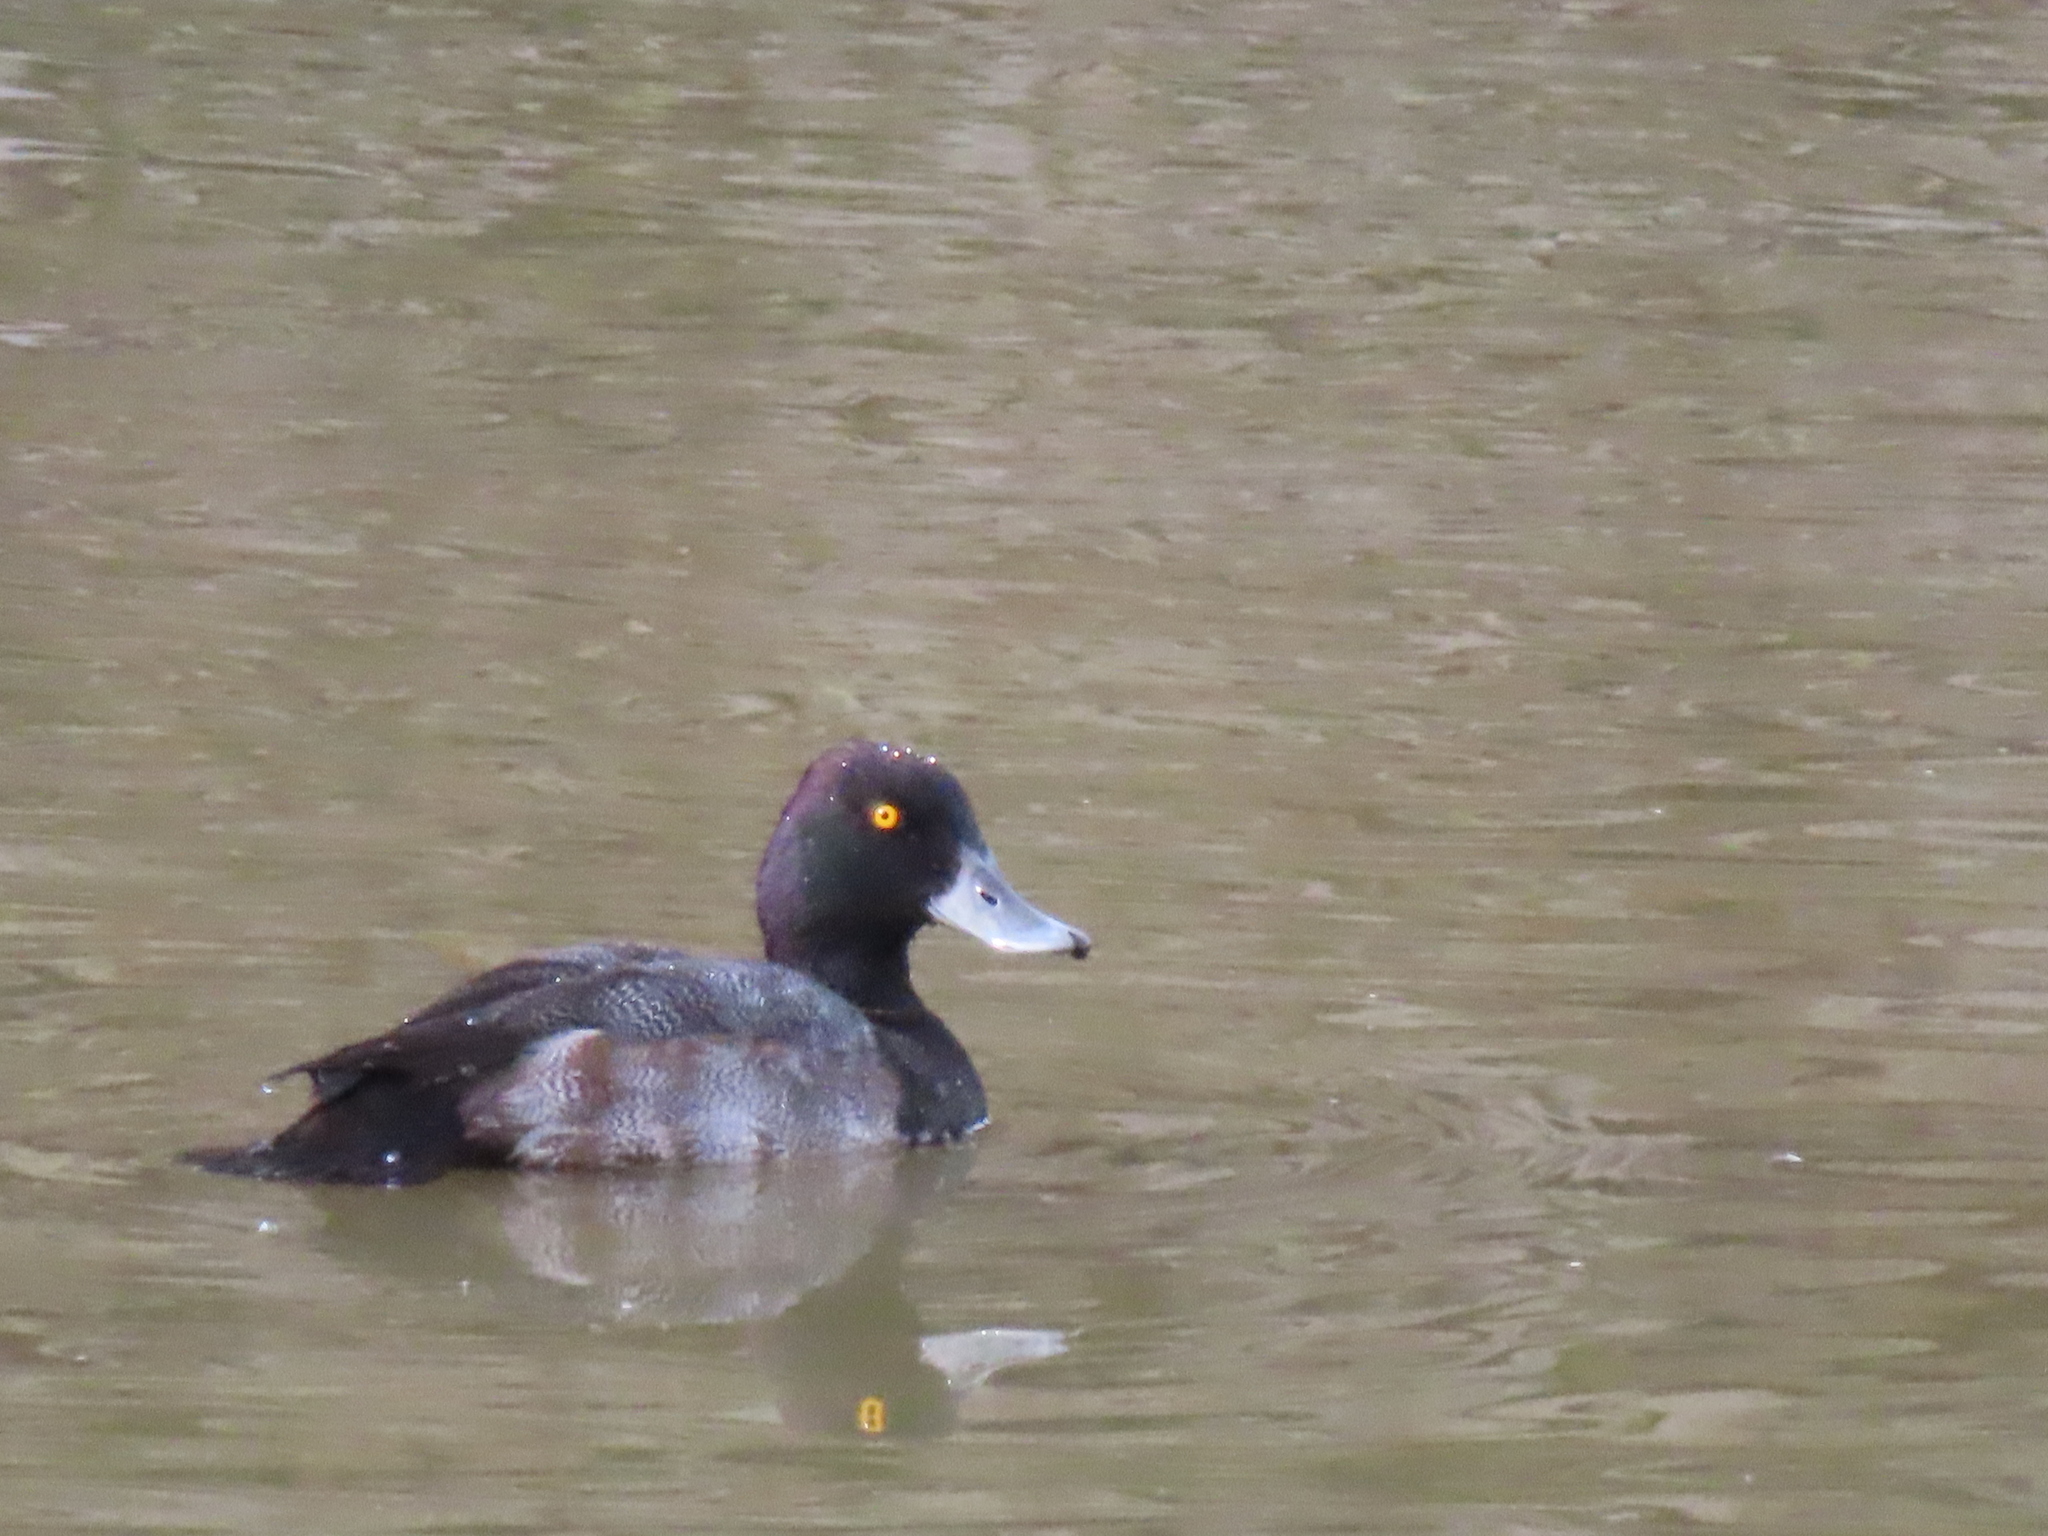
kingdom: Animalia
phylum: Chordata
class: Aves
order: Anseriformes
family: Anatidae
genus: Aythya
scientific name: Aythya affinis
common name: Lesser scaup
